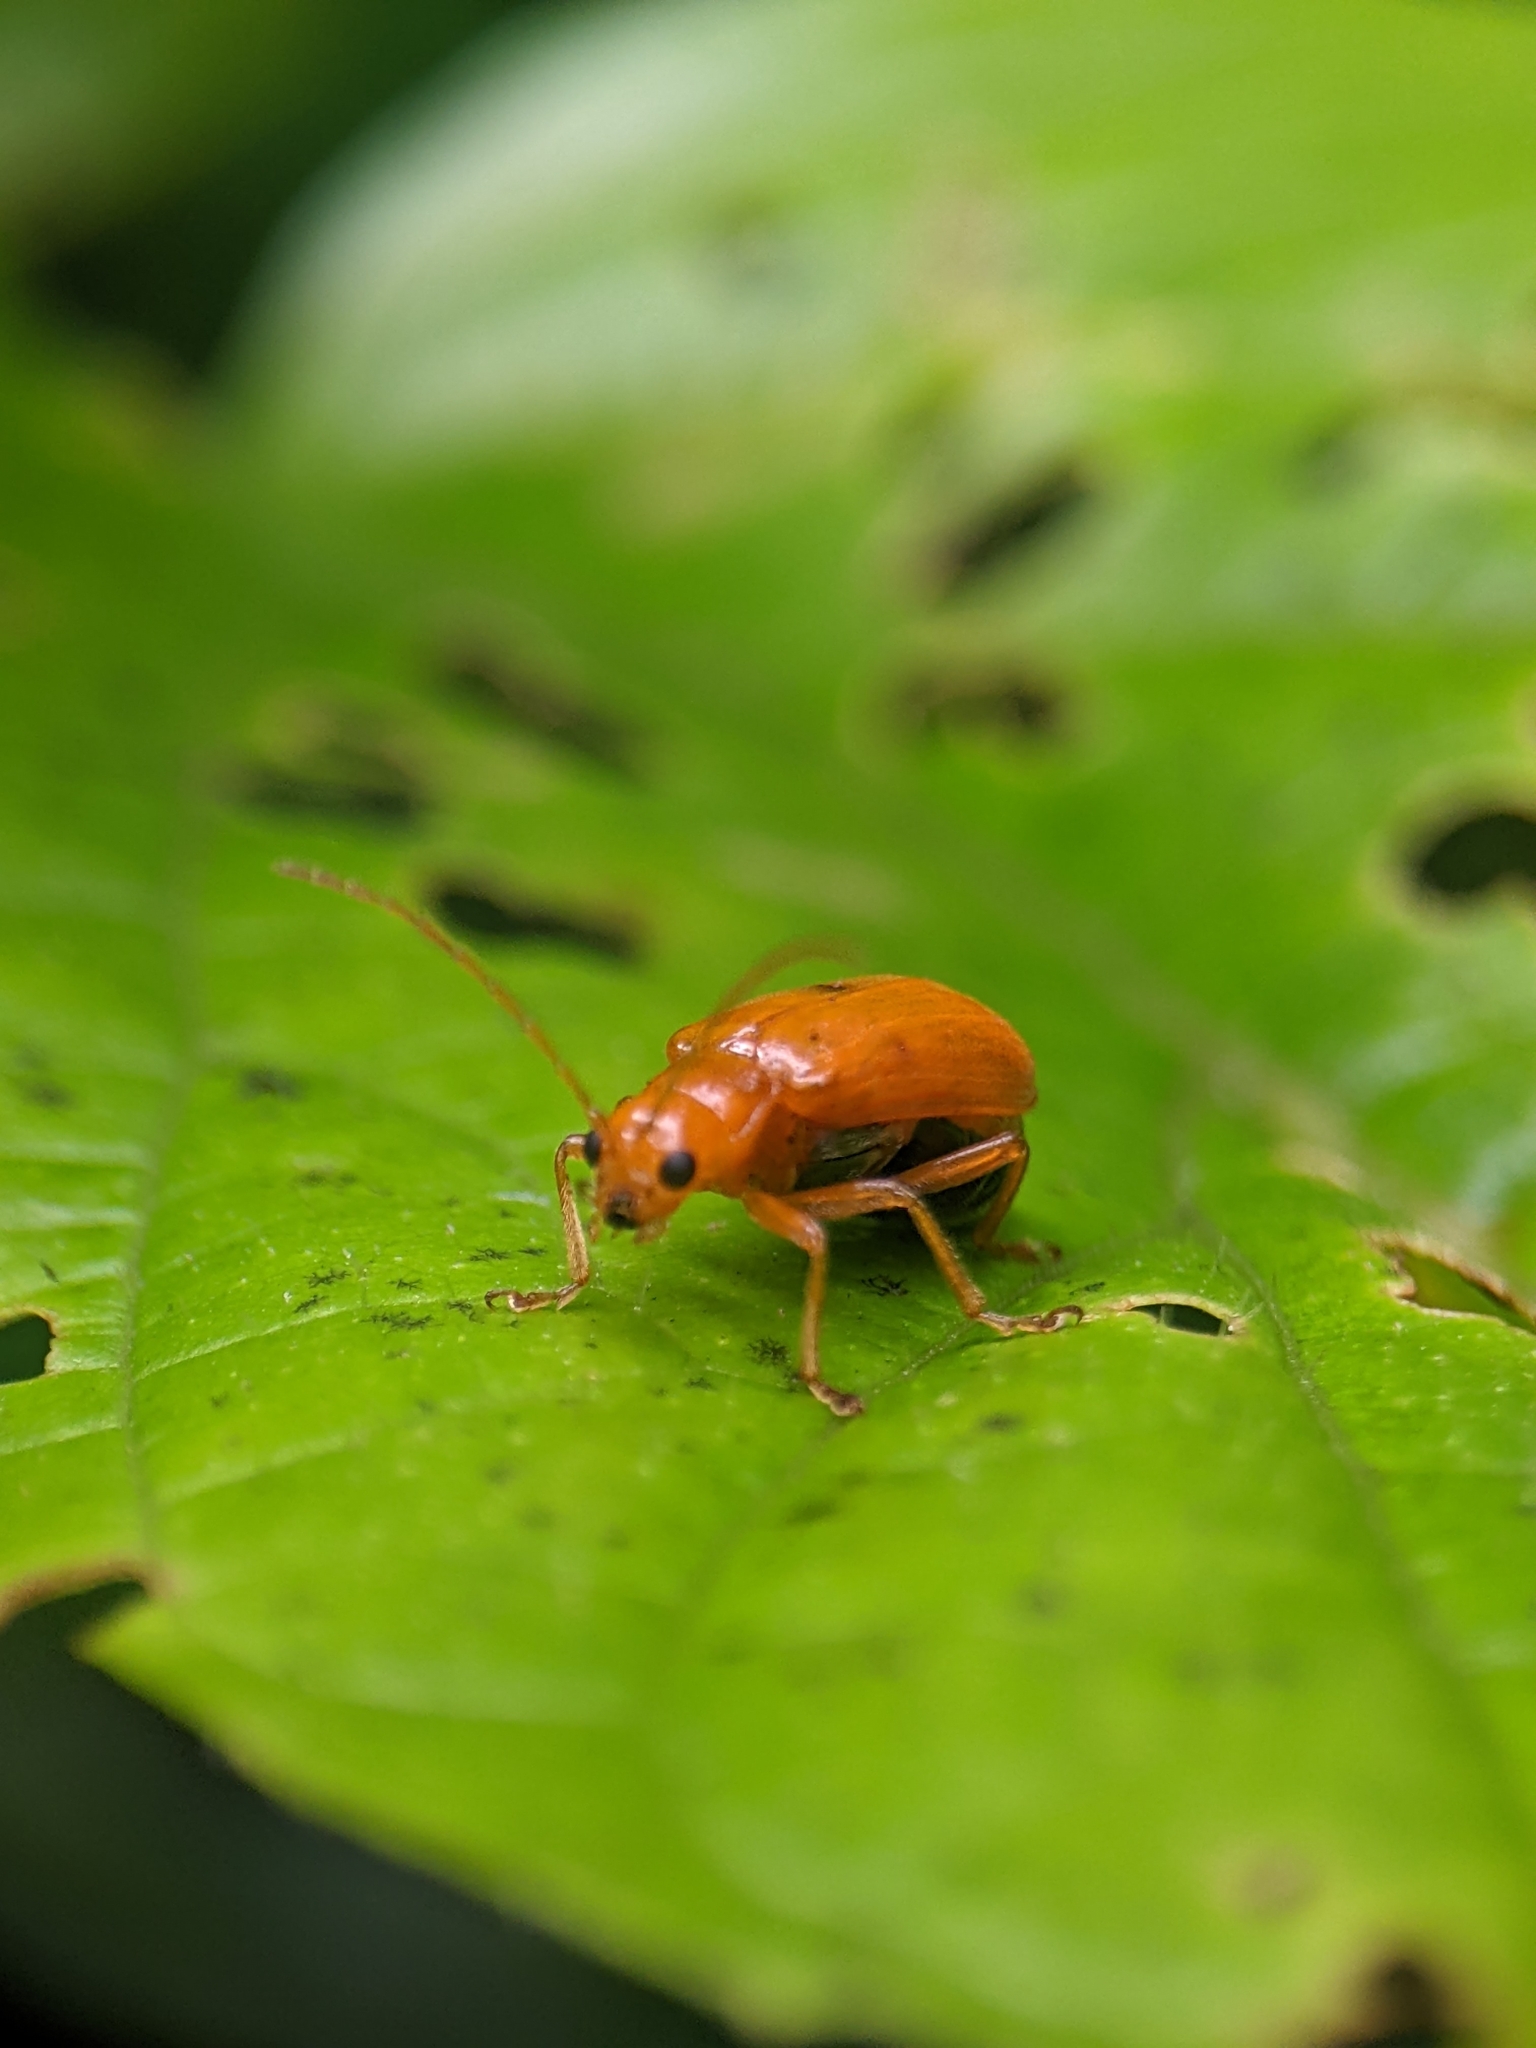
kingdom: Animalia
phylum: Arthropoda
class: Insecta
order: Coleoptera
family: Chrysomelidae
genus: Hoplasoma
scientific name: Hoplasoma ventrale
